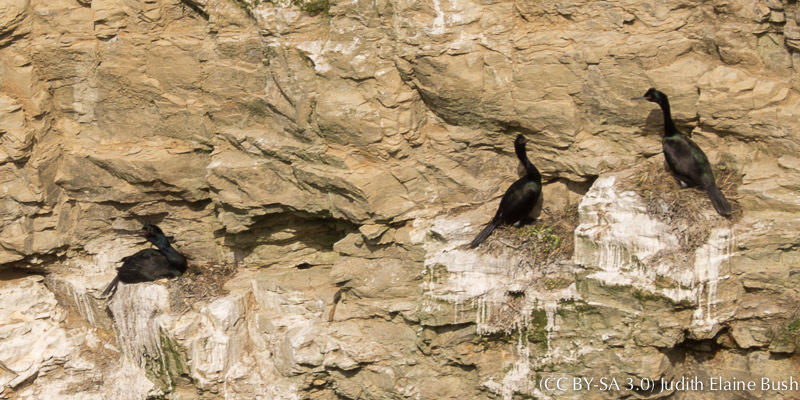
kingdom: Animalia
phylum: Chordata
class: Aves
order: Suliformes
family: Phalacrocoracidae
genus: Phalacrocorax
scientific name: Phalacrocorax pelagicus
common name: Pelagic cormorant
